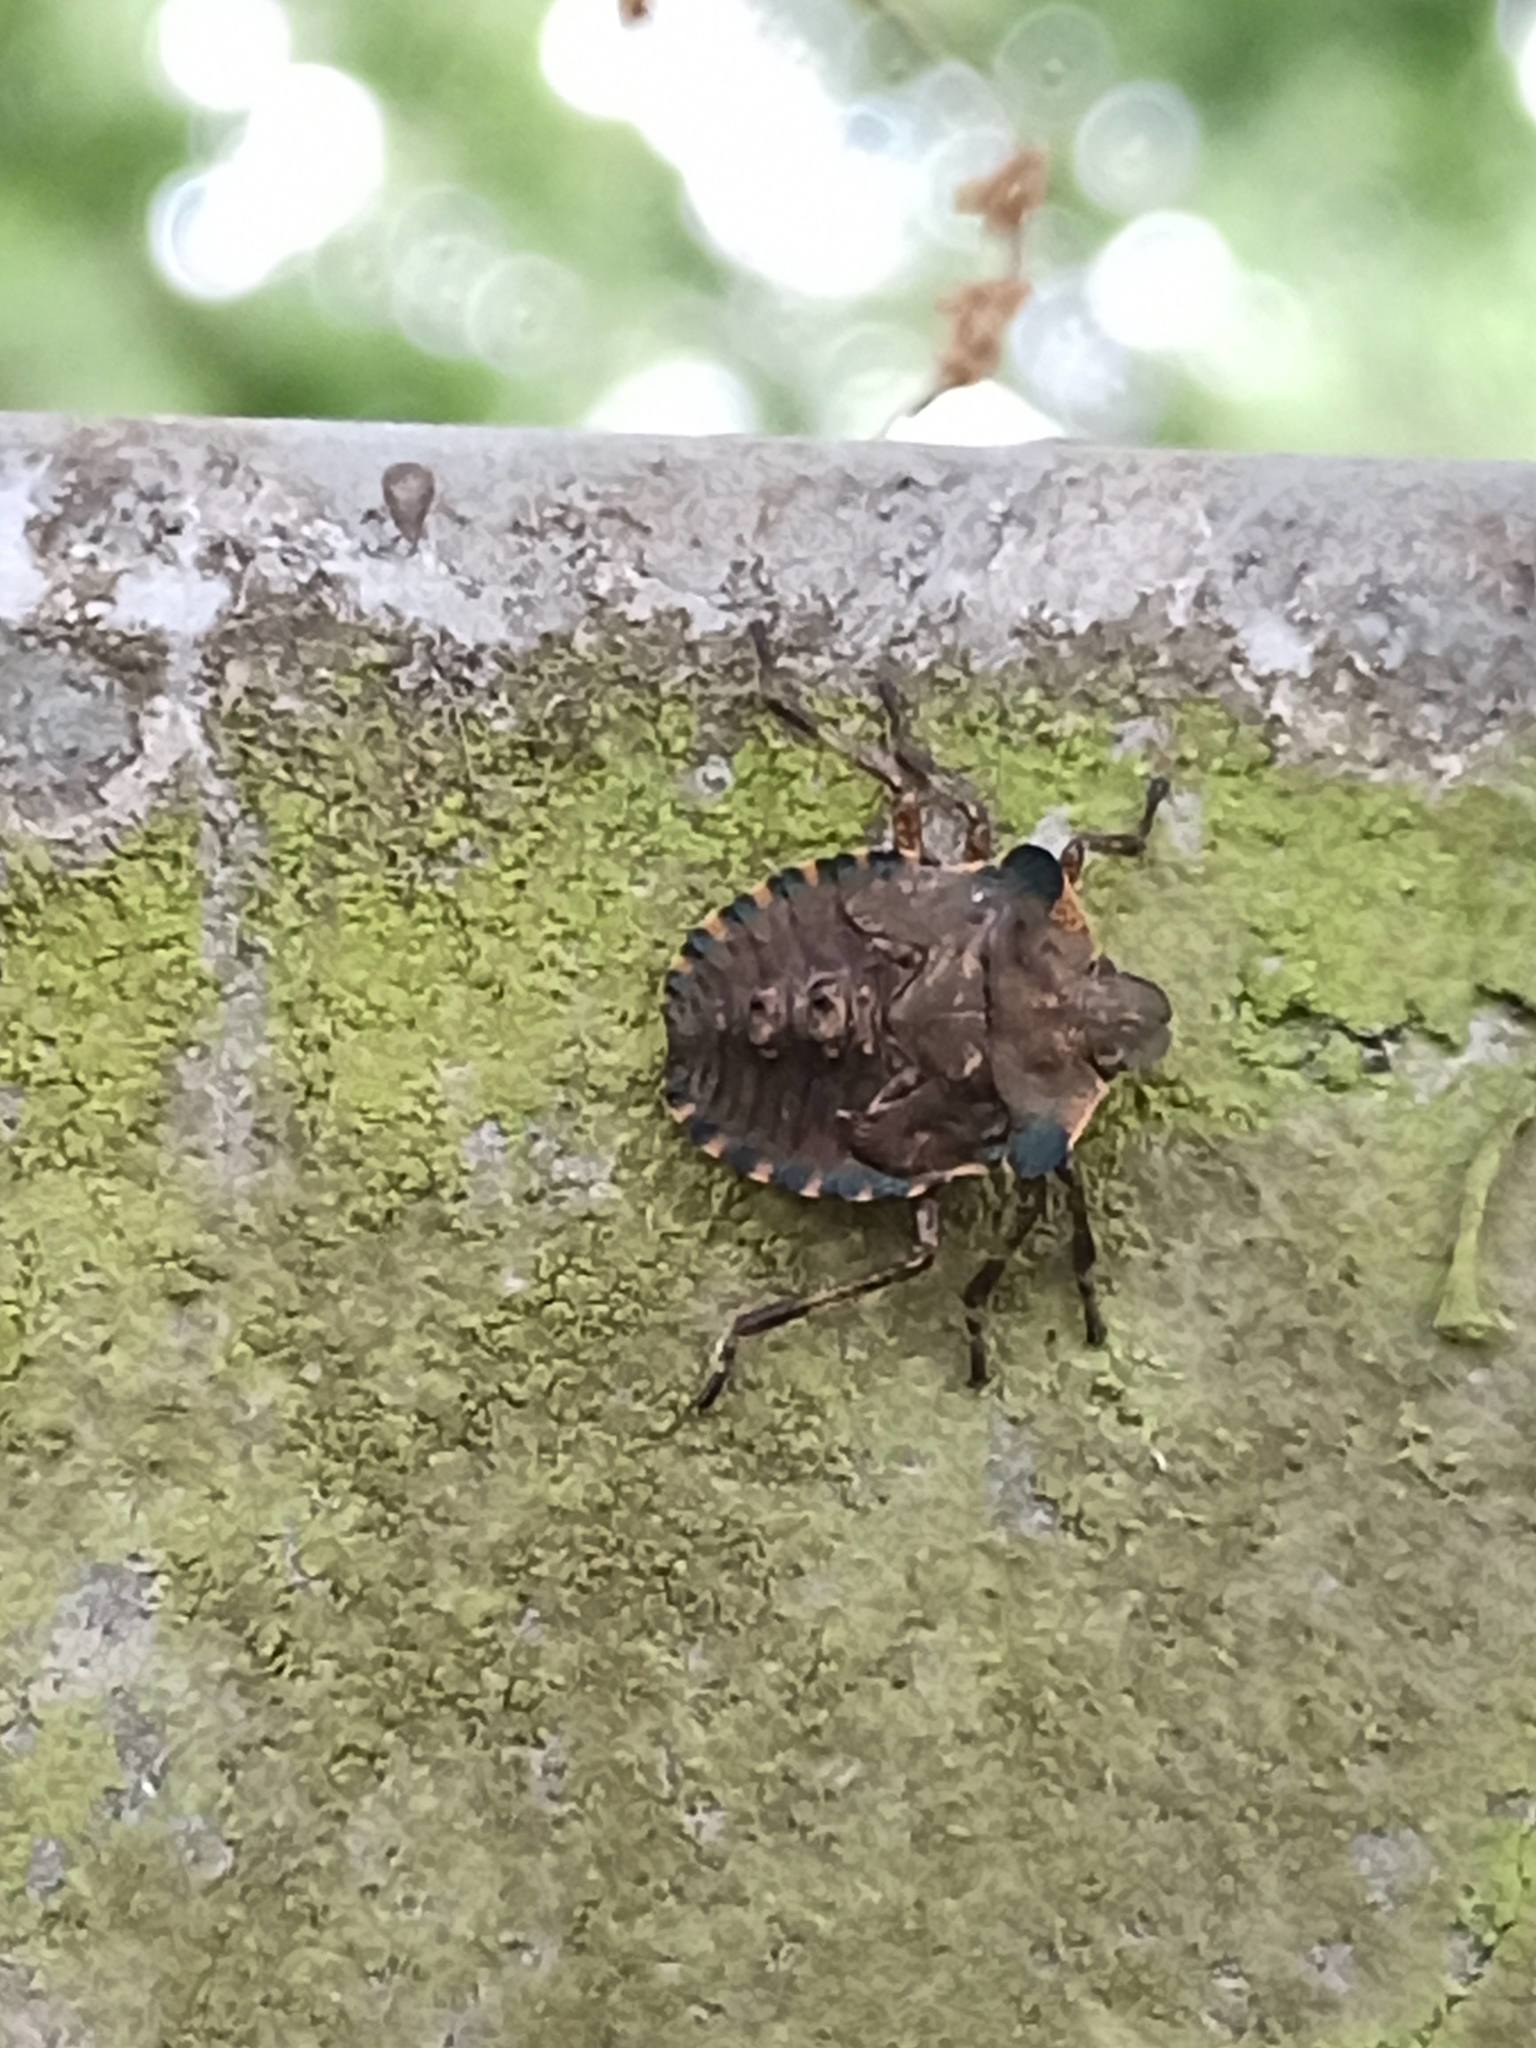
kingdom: Animalia
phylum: Arthropoda
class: Insecta
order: Hemiptera
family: Pentatomidae
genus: Pentatoma
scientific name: Pentatoma rufipes
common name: Forest bug
